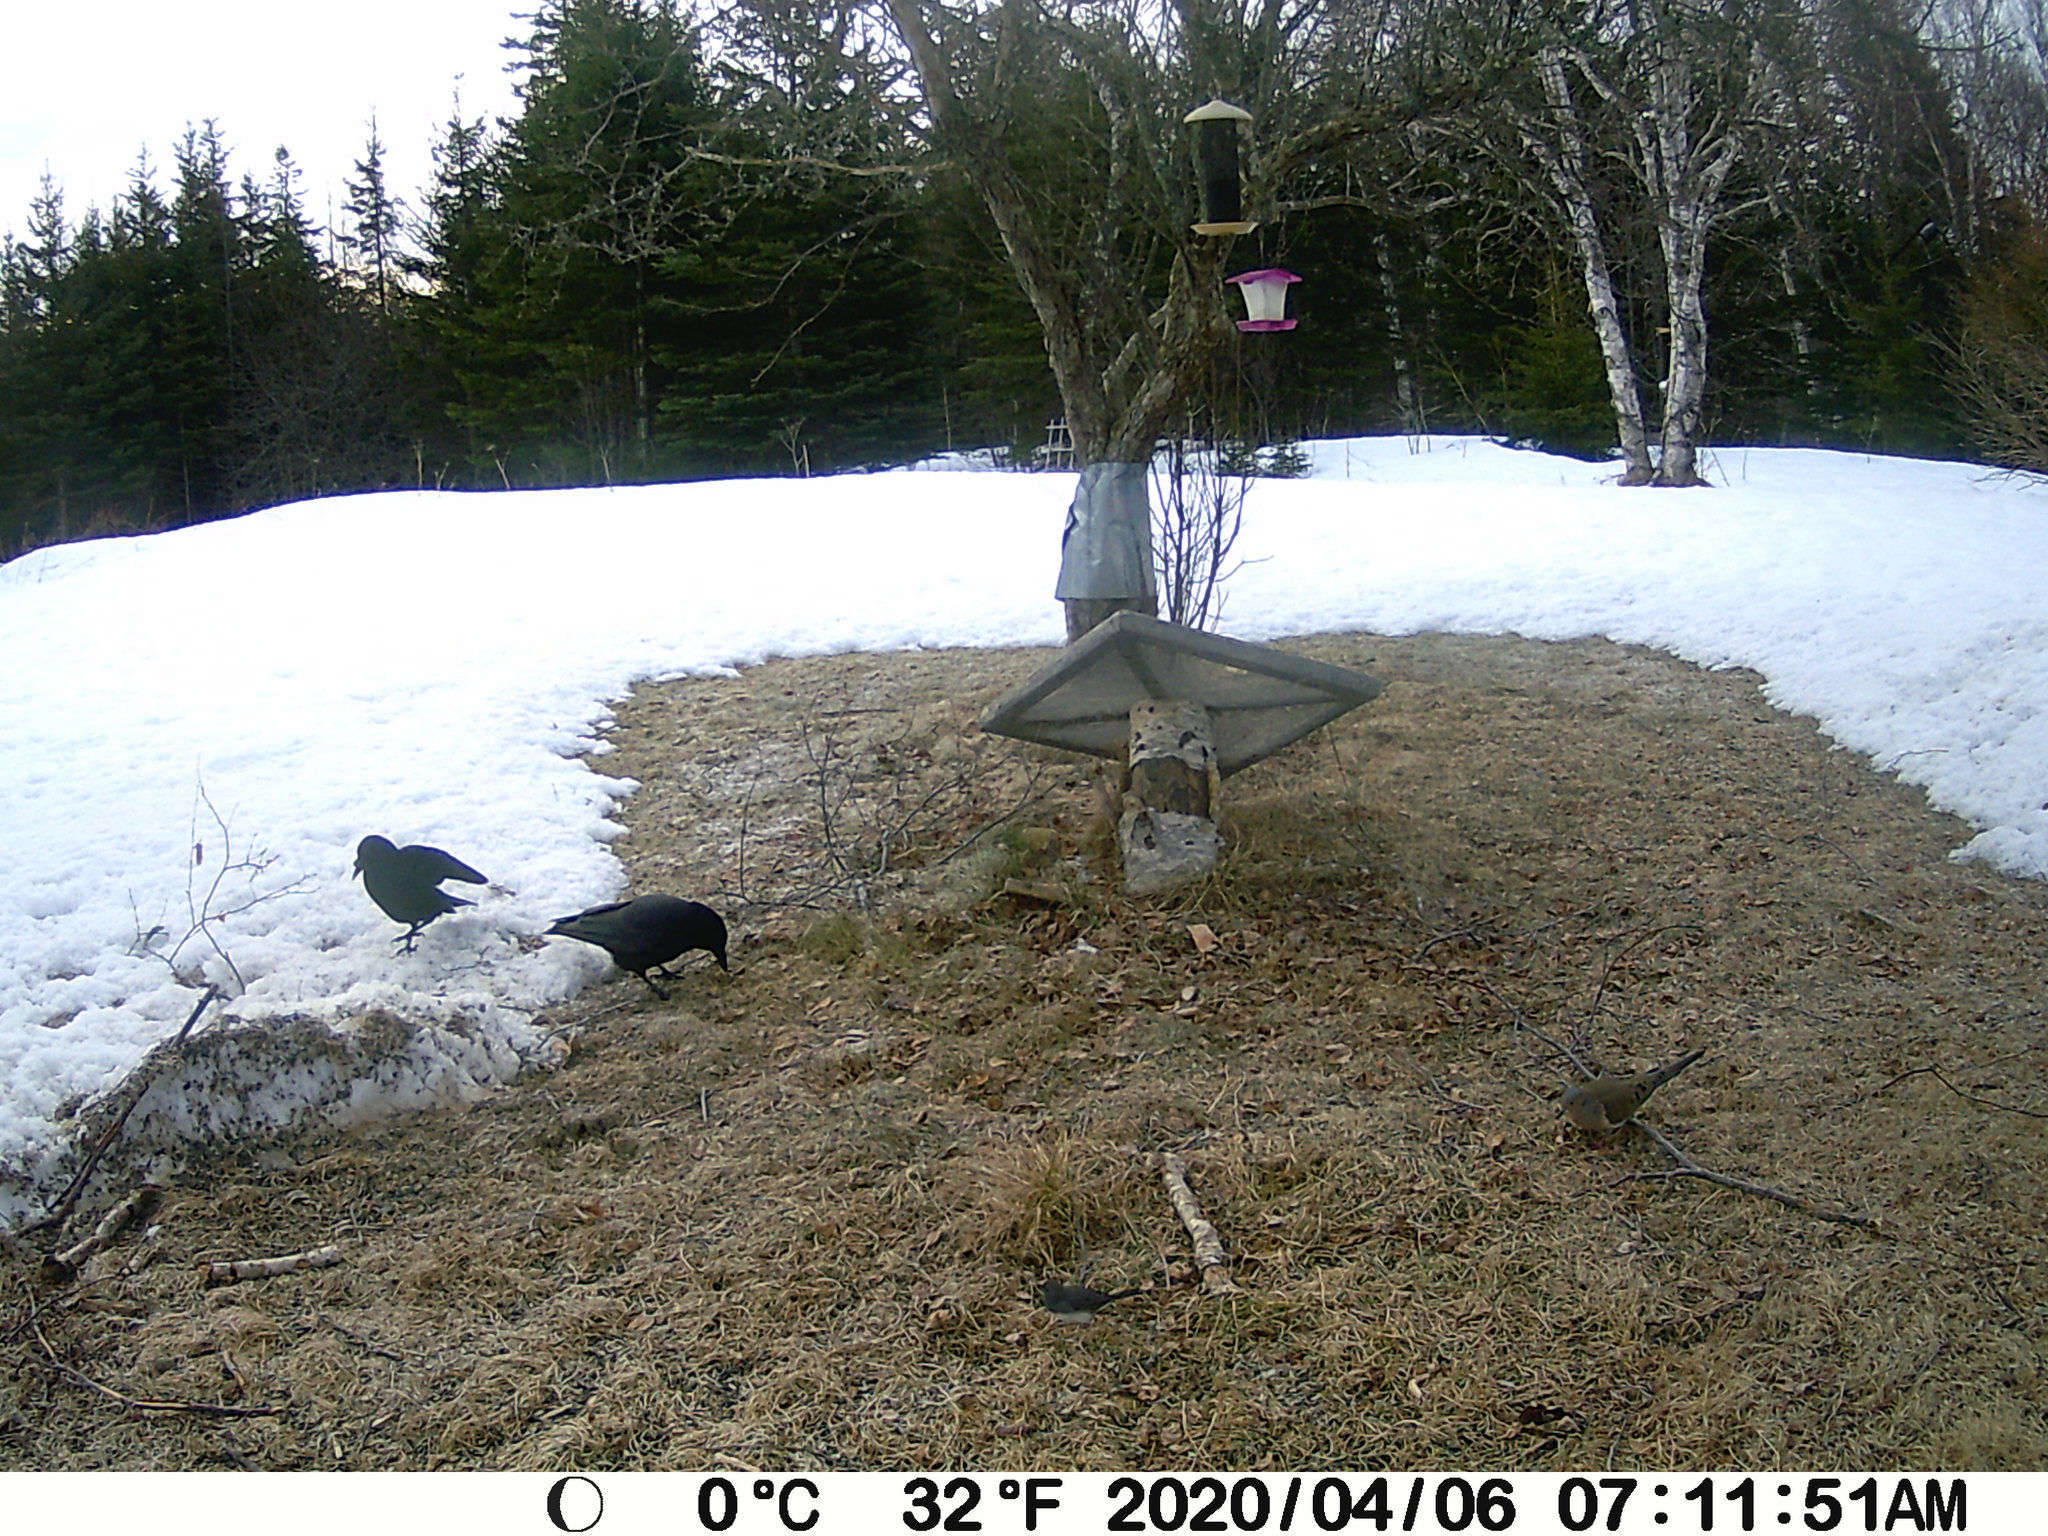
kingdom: Animalia
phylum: Chordata
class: Aves
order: Columbiformes
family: Columbidae
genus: Zenaida
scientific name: Zenaida macroura
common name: Mourning dove
